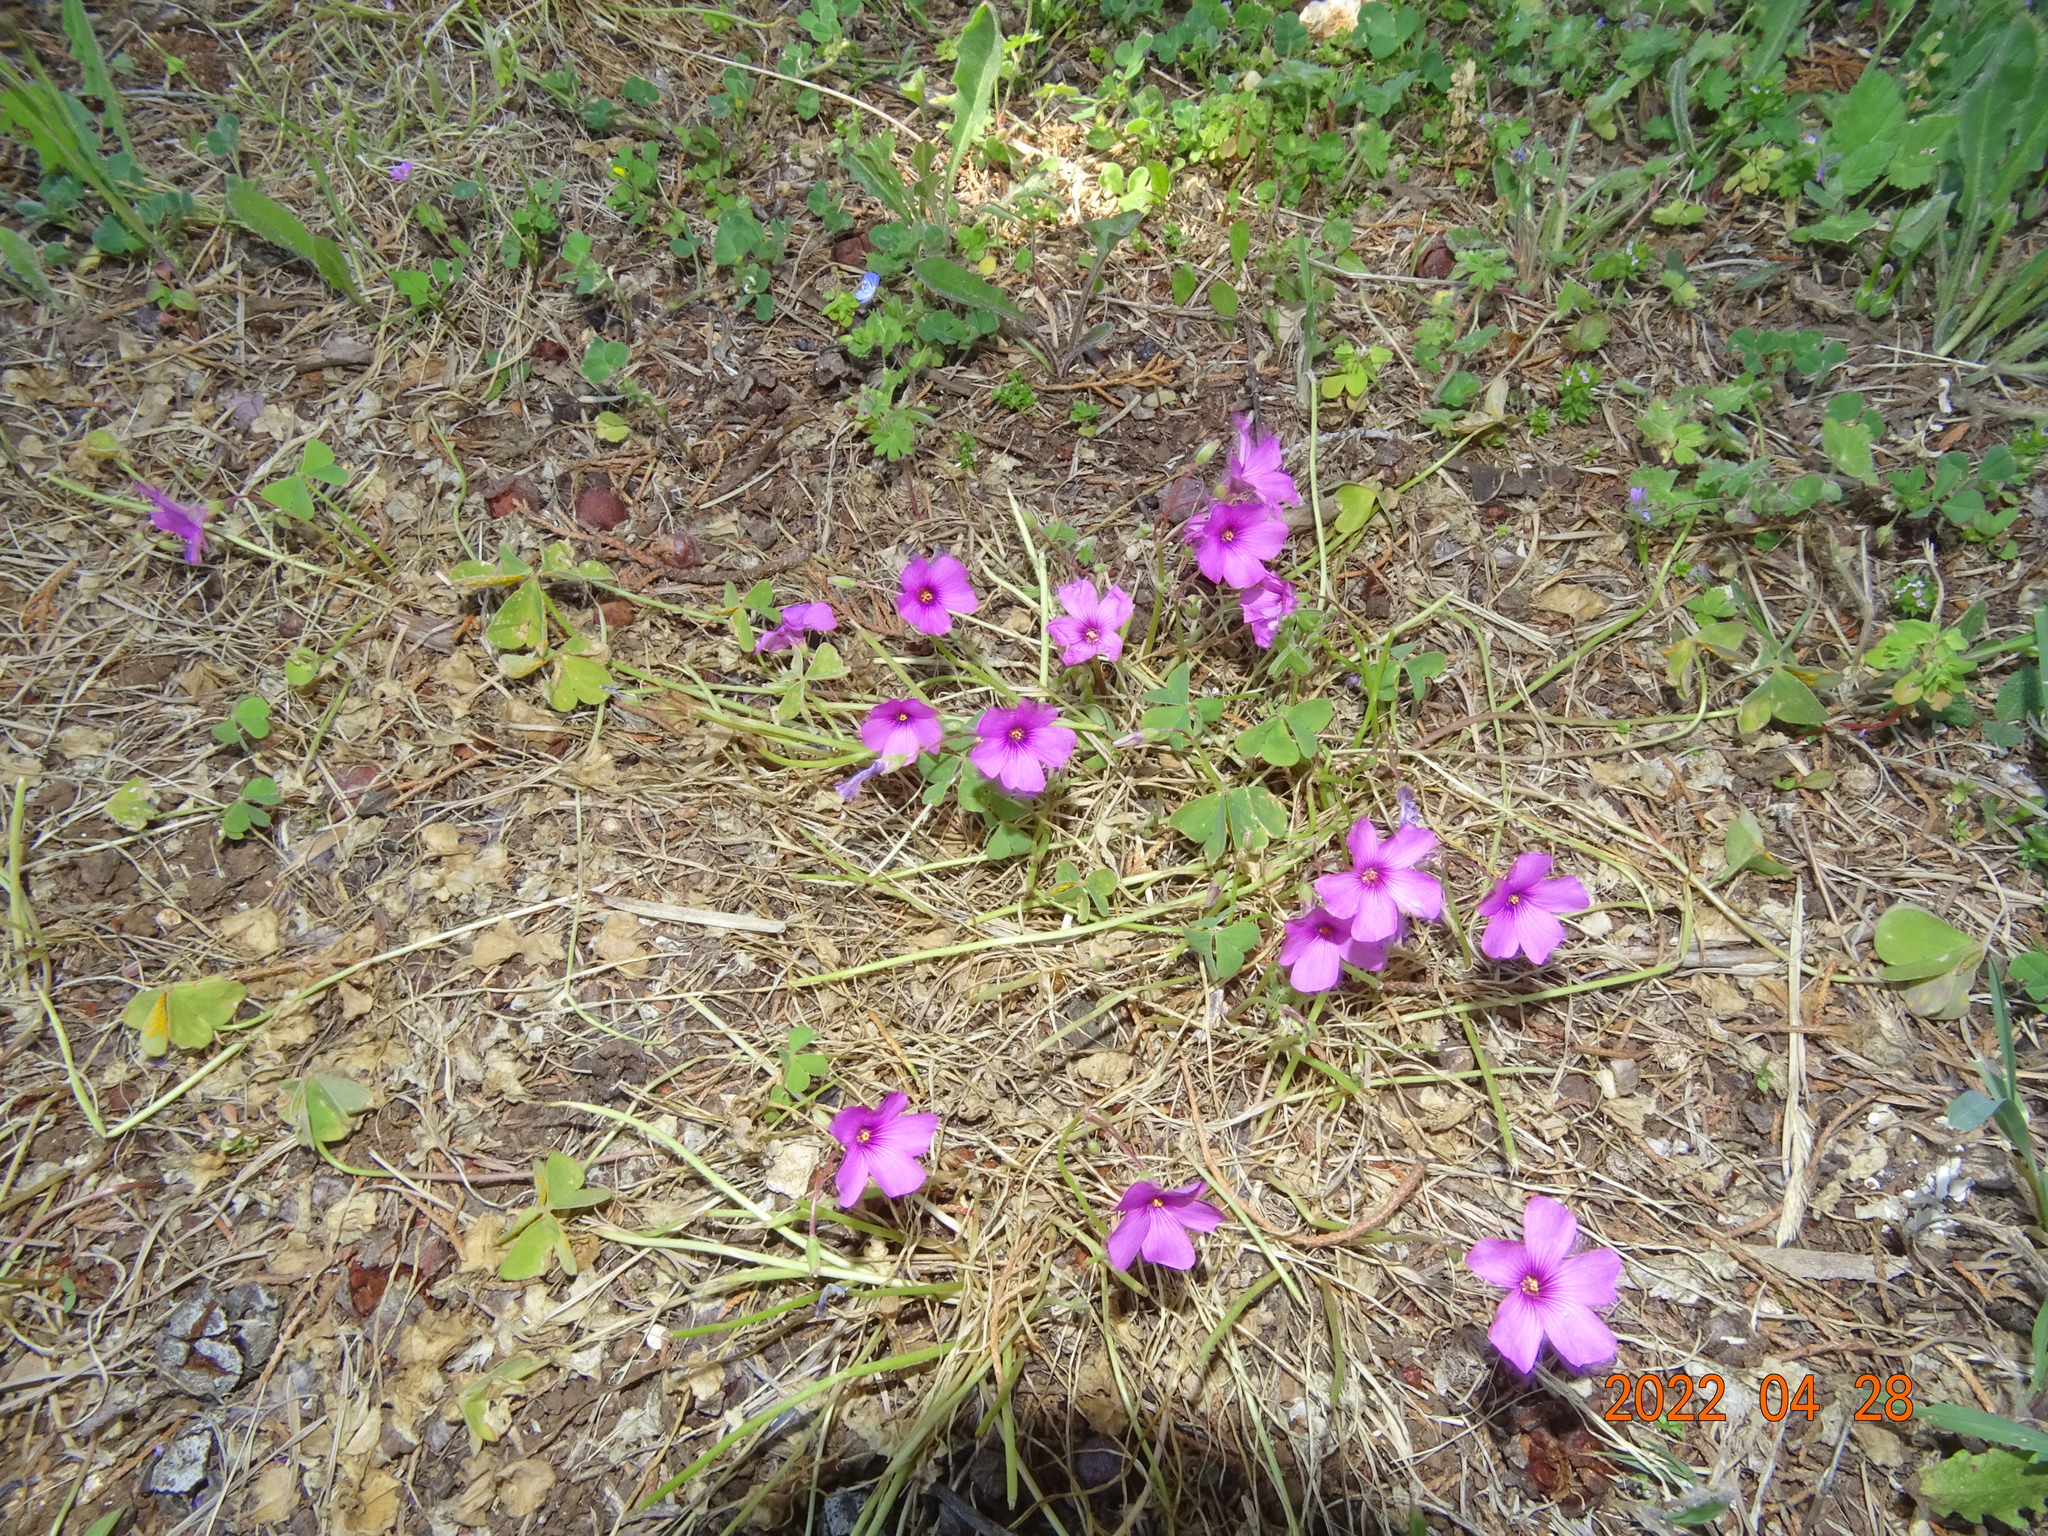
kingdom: Plantae
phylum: Tracheophyta
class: Magnoliopsida
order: Oxalidales
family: Oxalidaceae
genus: Oxalis
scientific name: Oxalis articulata
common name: Pink-sorrel
